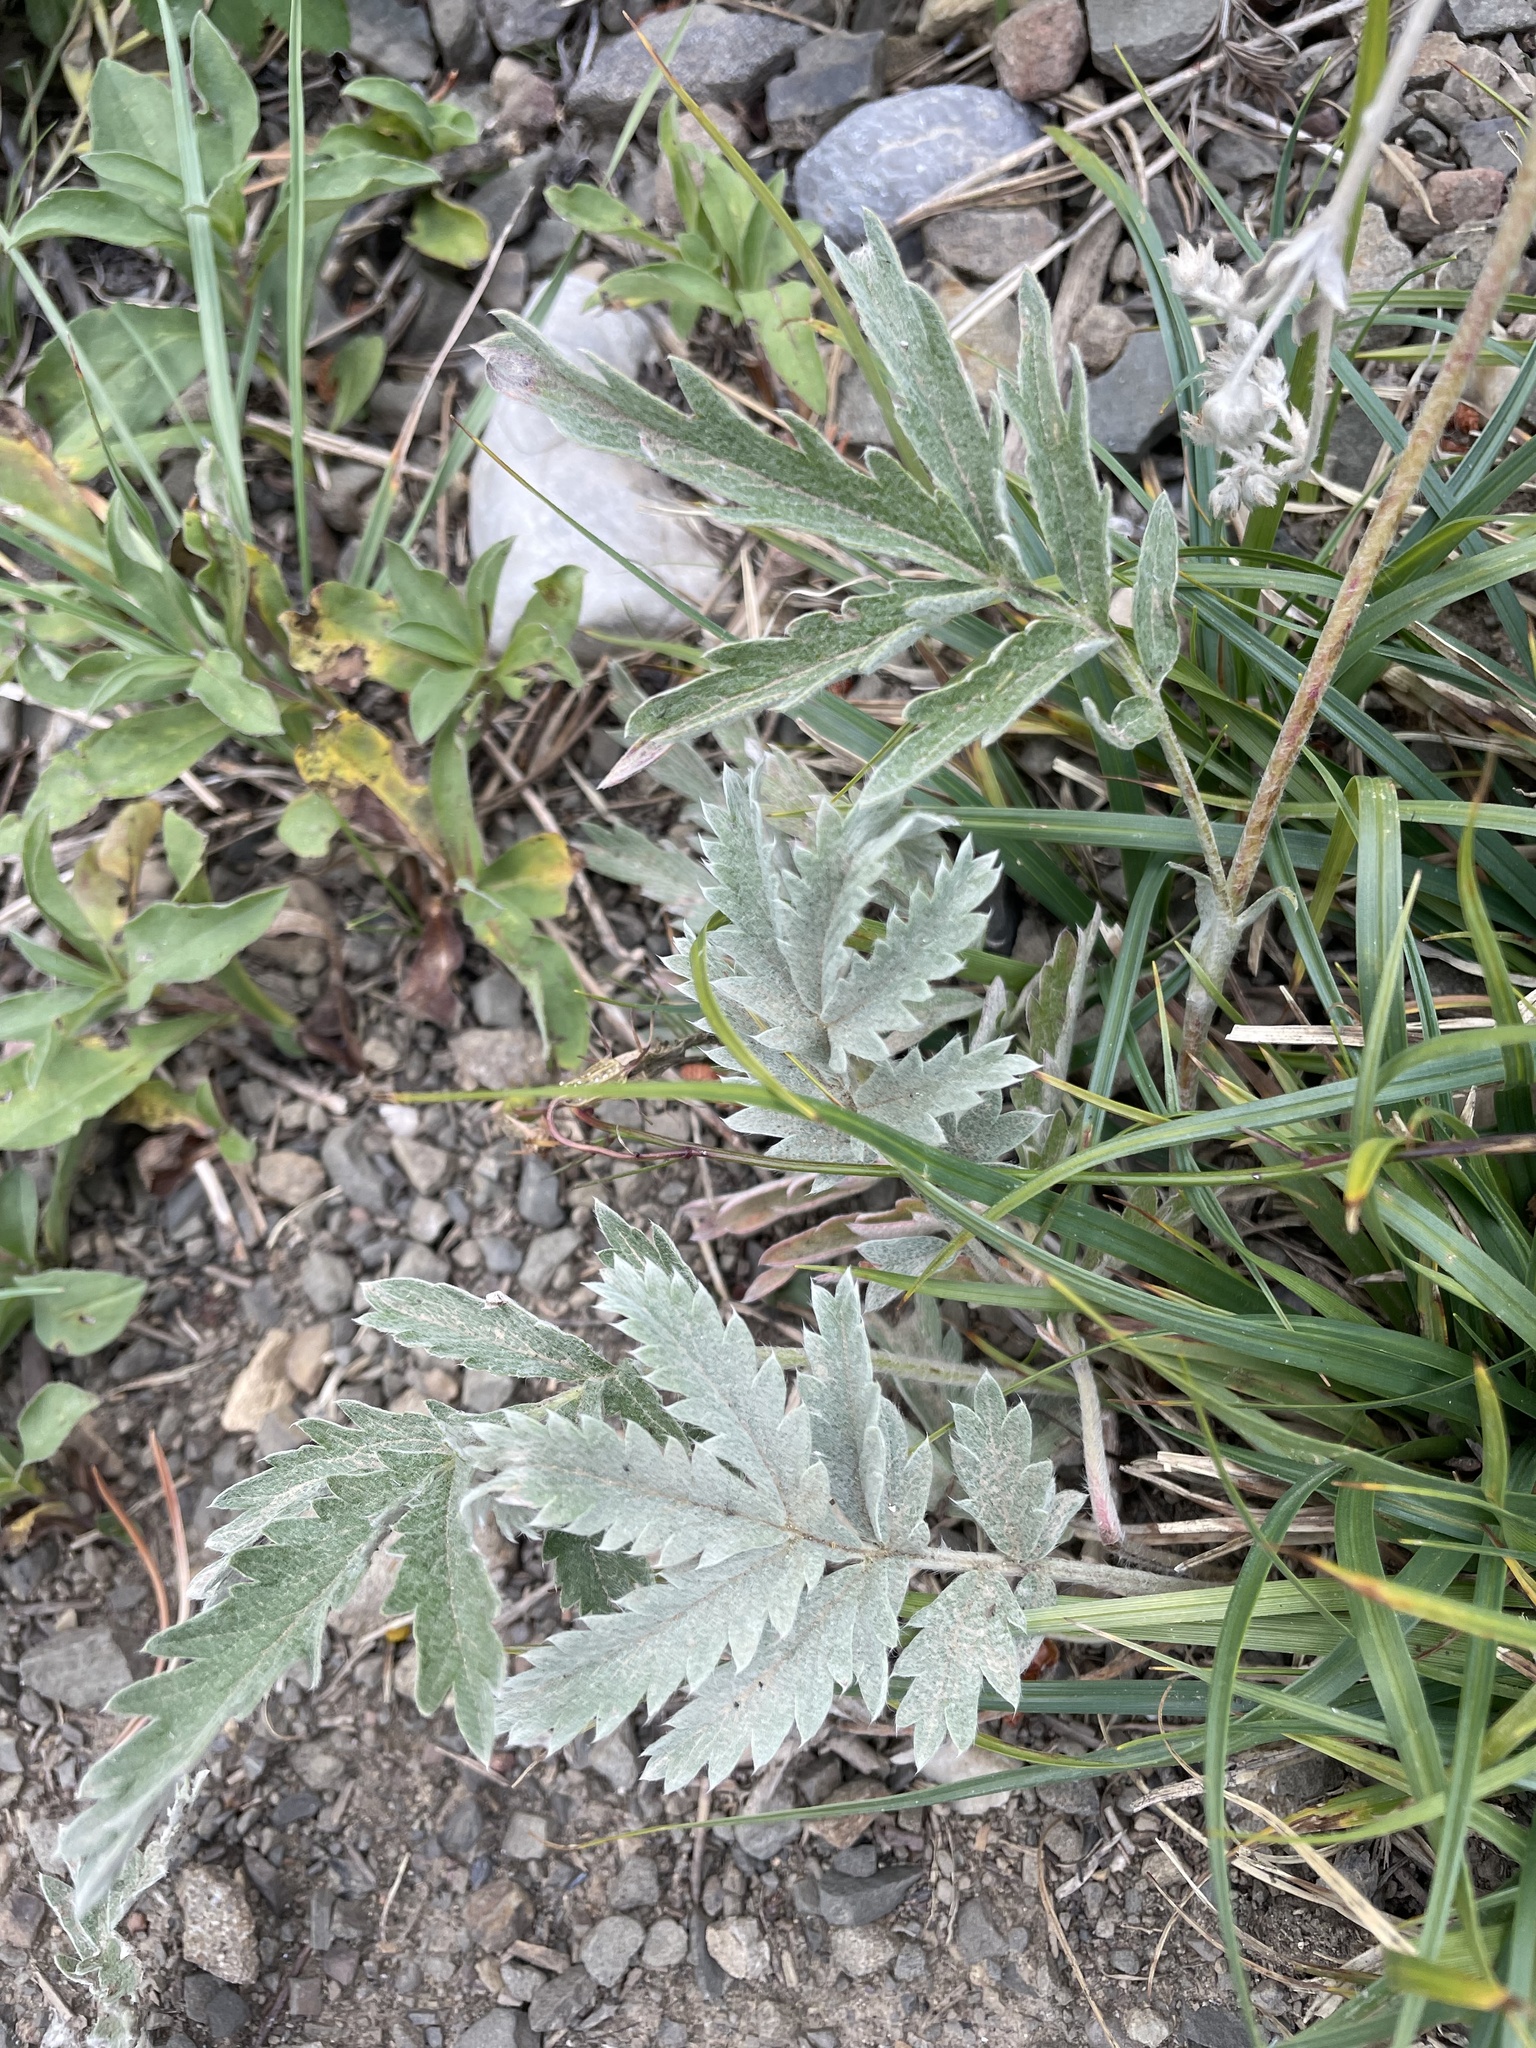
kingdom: Plantae
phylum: Tracheophyta
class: Magnoliopsida
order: Rosales
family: Rosaceae
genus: Potentilla
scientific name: Potentilla effusa
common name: Branched cinquefoil
